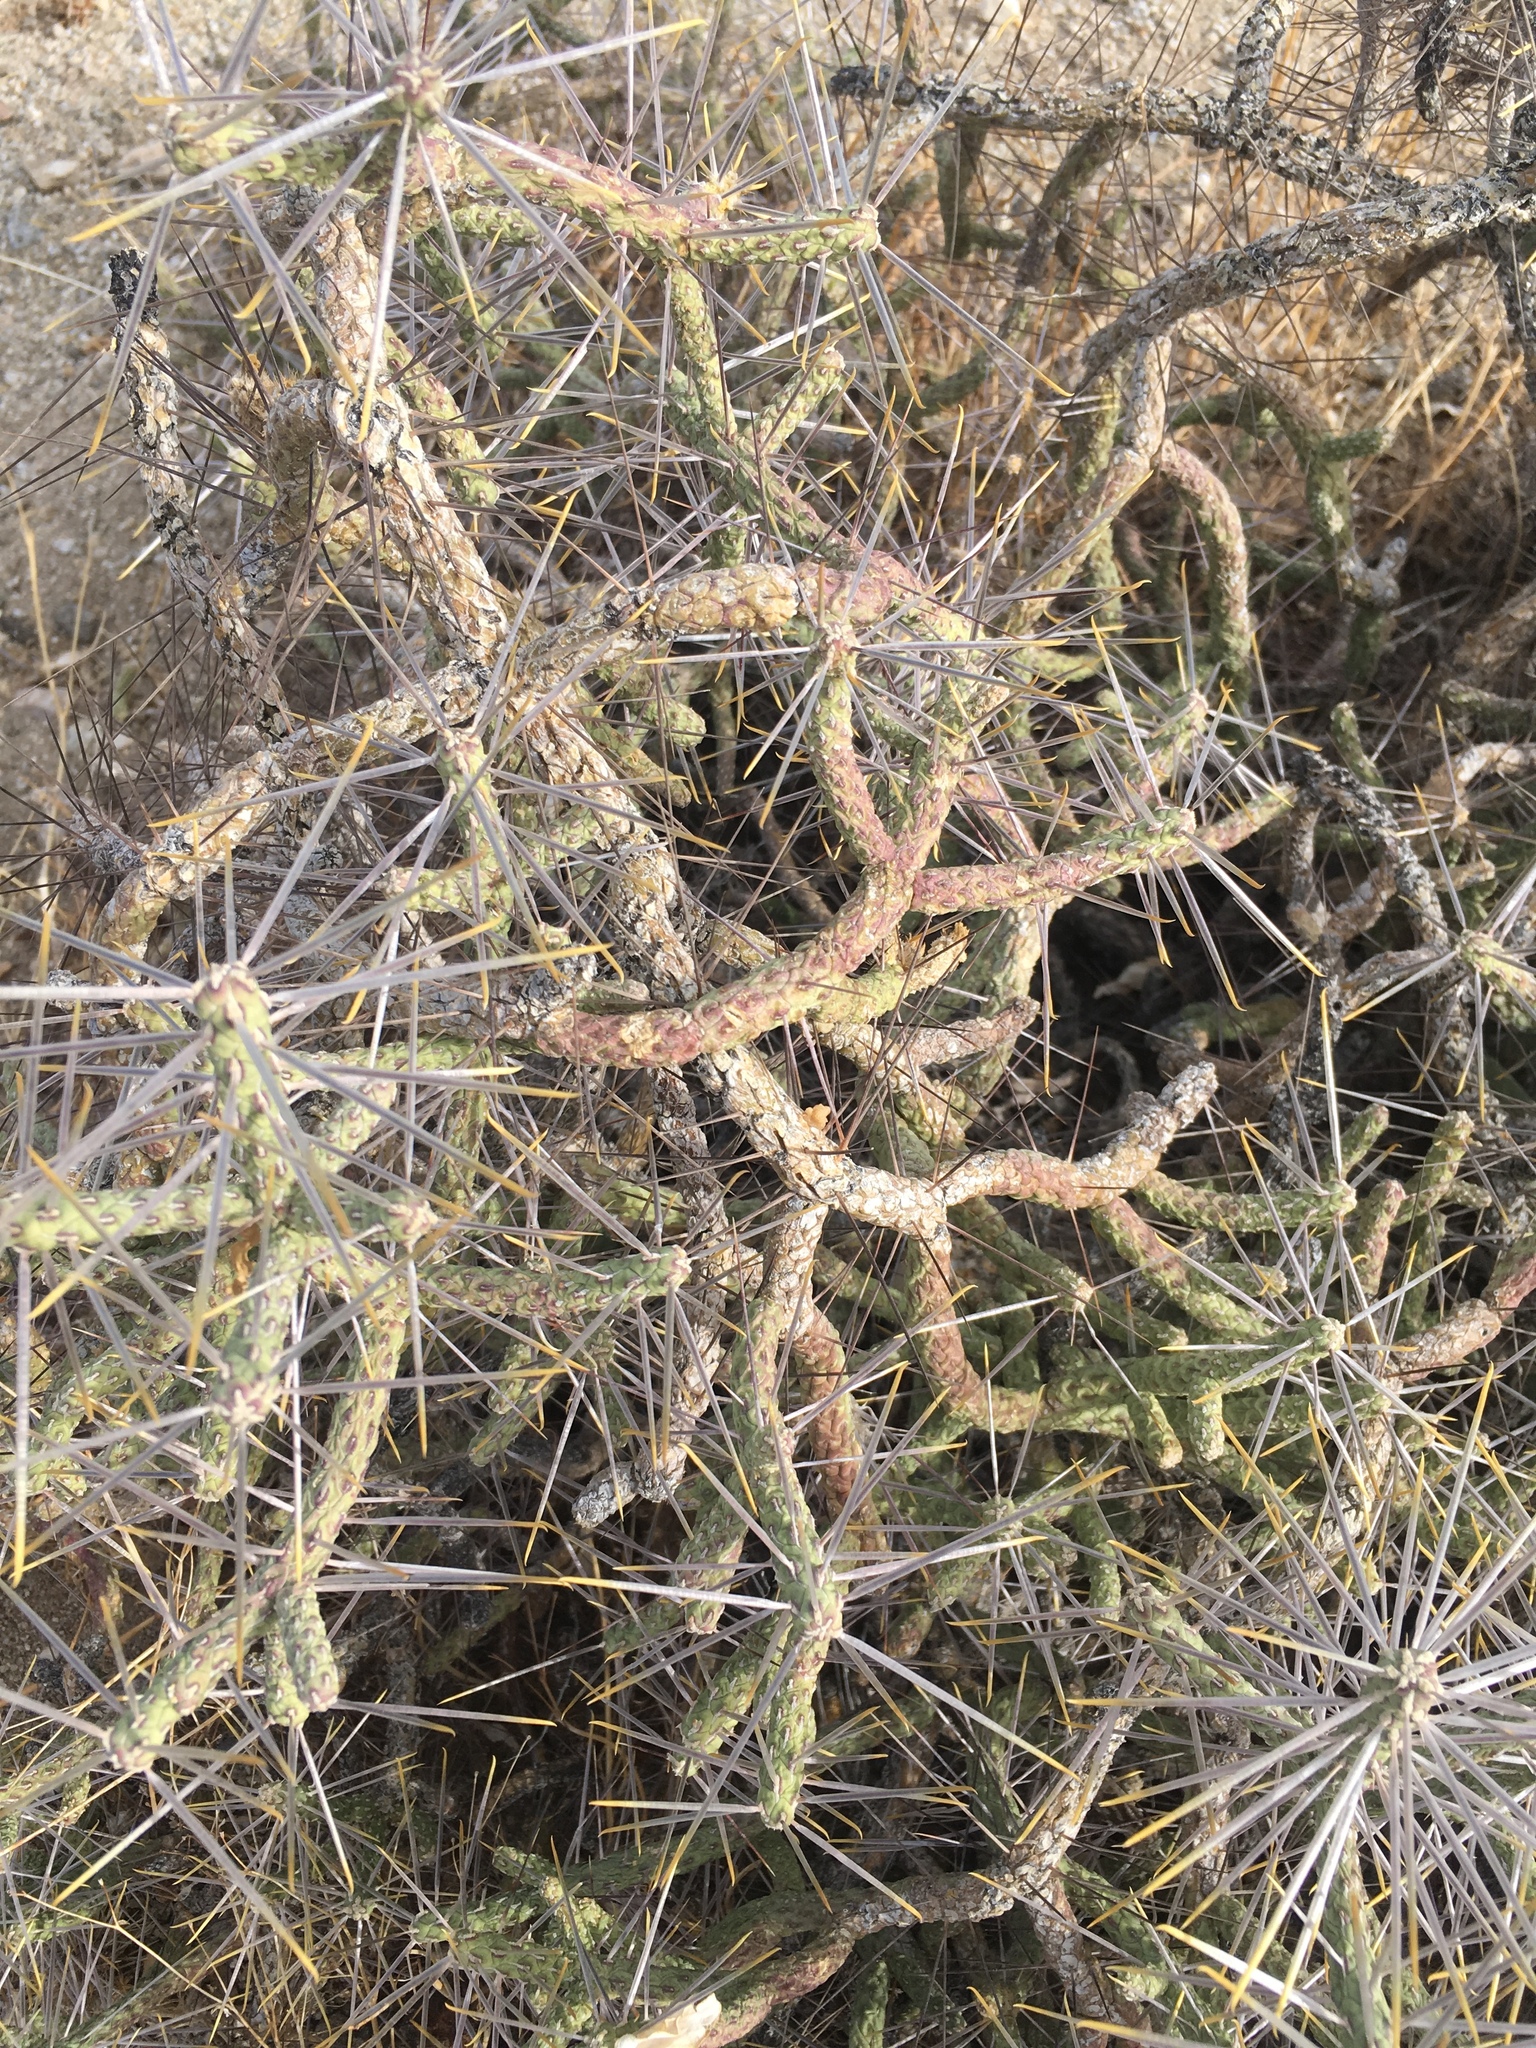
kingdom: Plantae
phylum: Tracheophyta
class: Magnoliopsida
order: Caryophyllales
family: Cactaceae
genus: Cylindropuntia
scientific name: Cylindropuntia ramosissima
